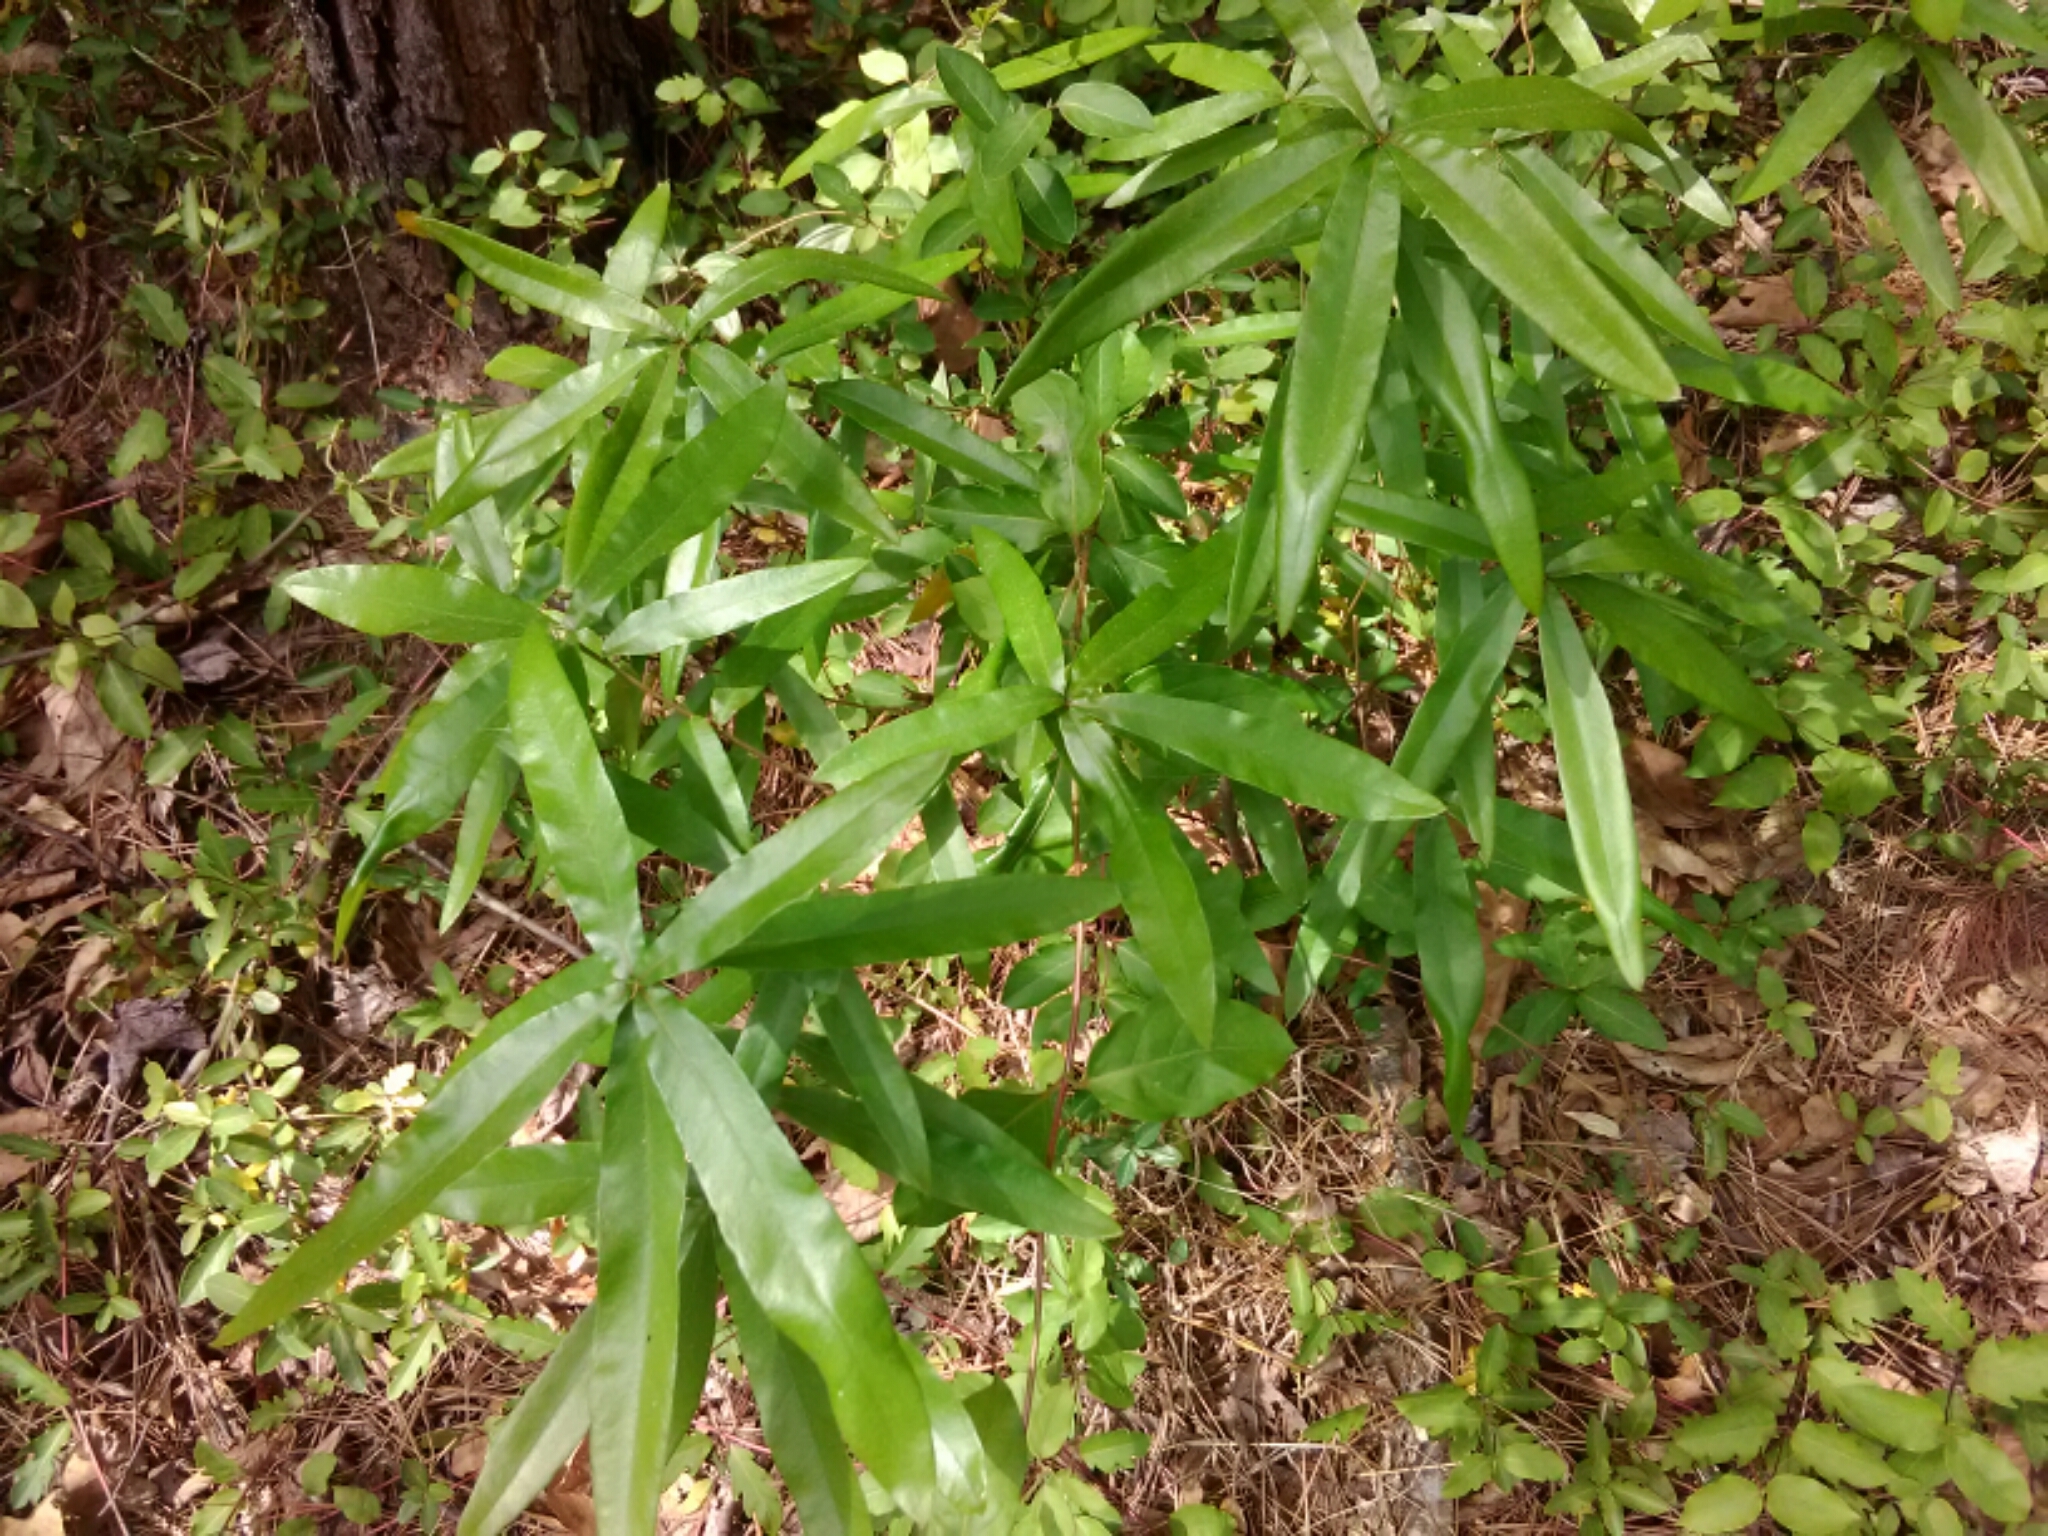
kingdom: Plantae
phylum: Tracheophyta
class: Magnoliopsida
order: Fagales
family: Fagaceae
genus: Quercus
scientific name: Quercus phellos
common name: Willow oak
